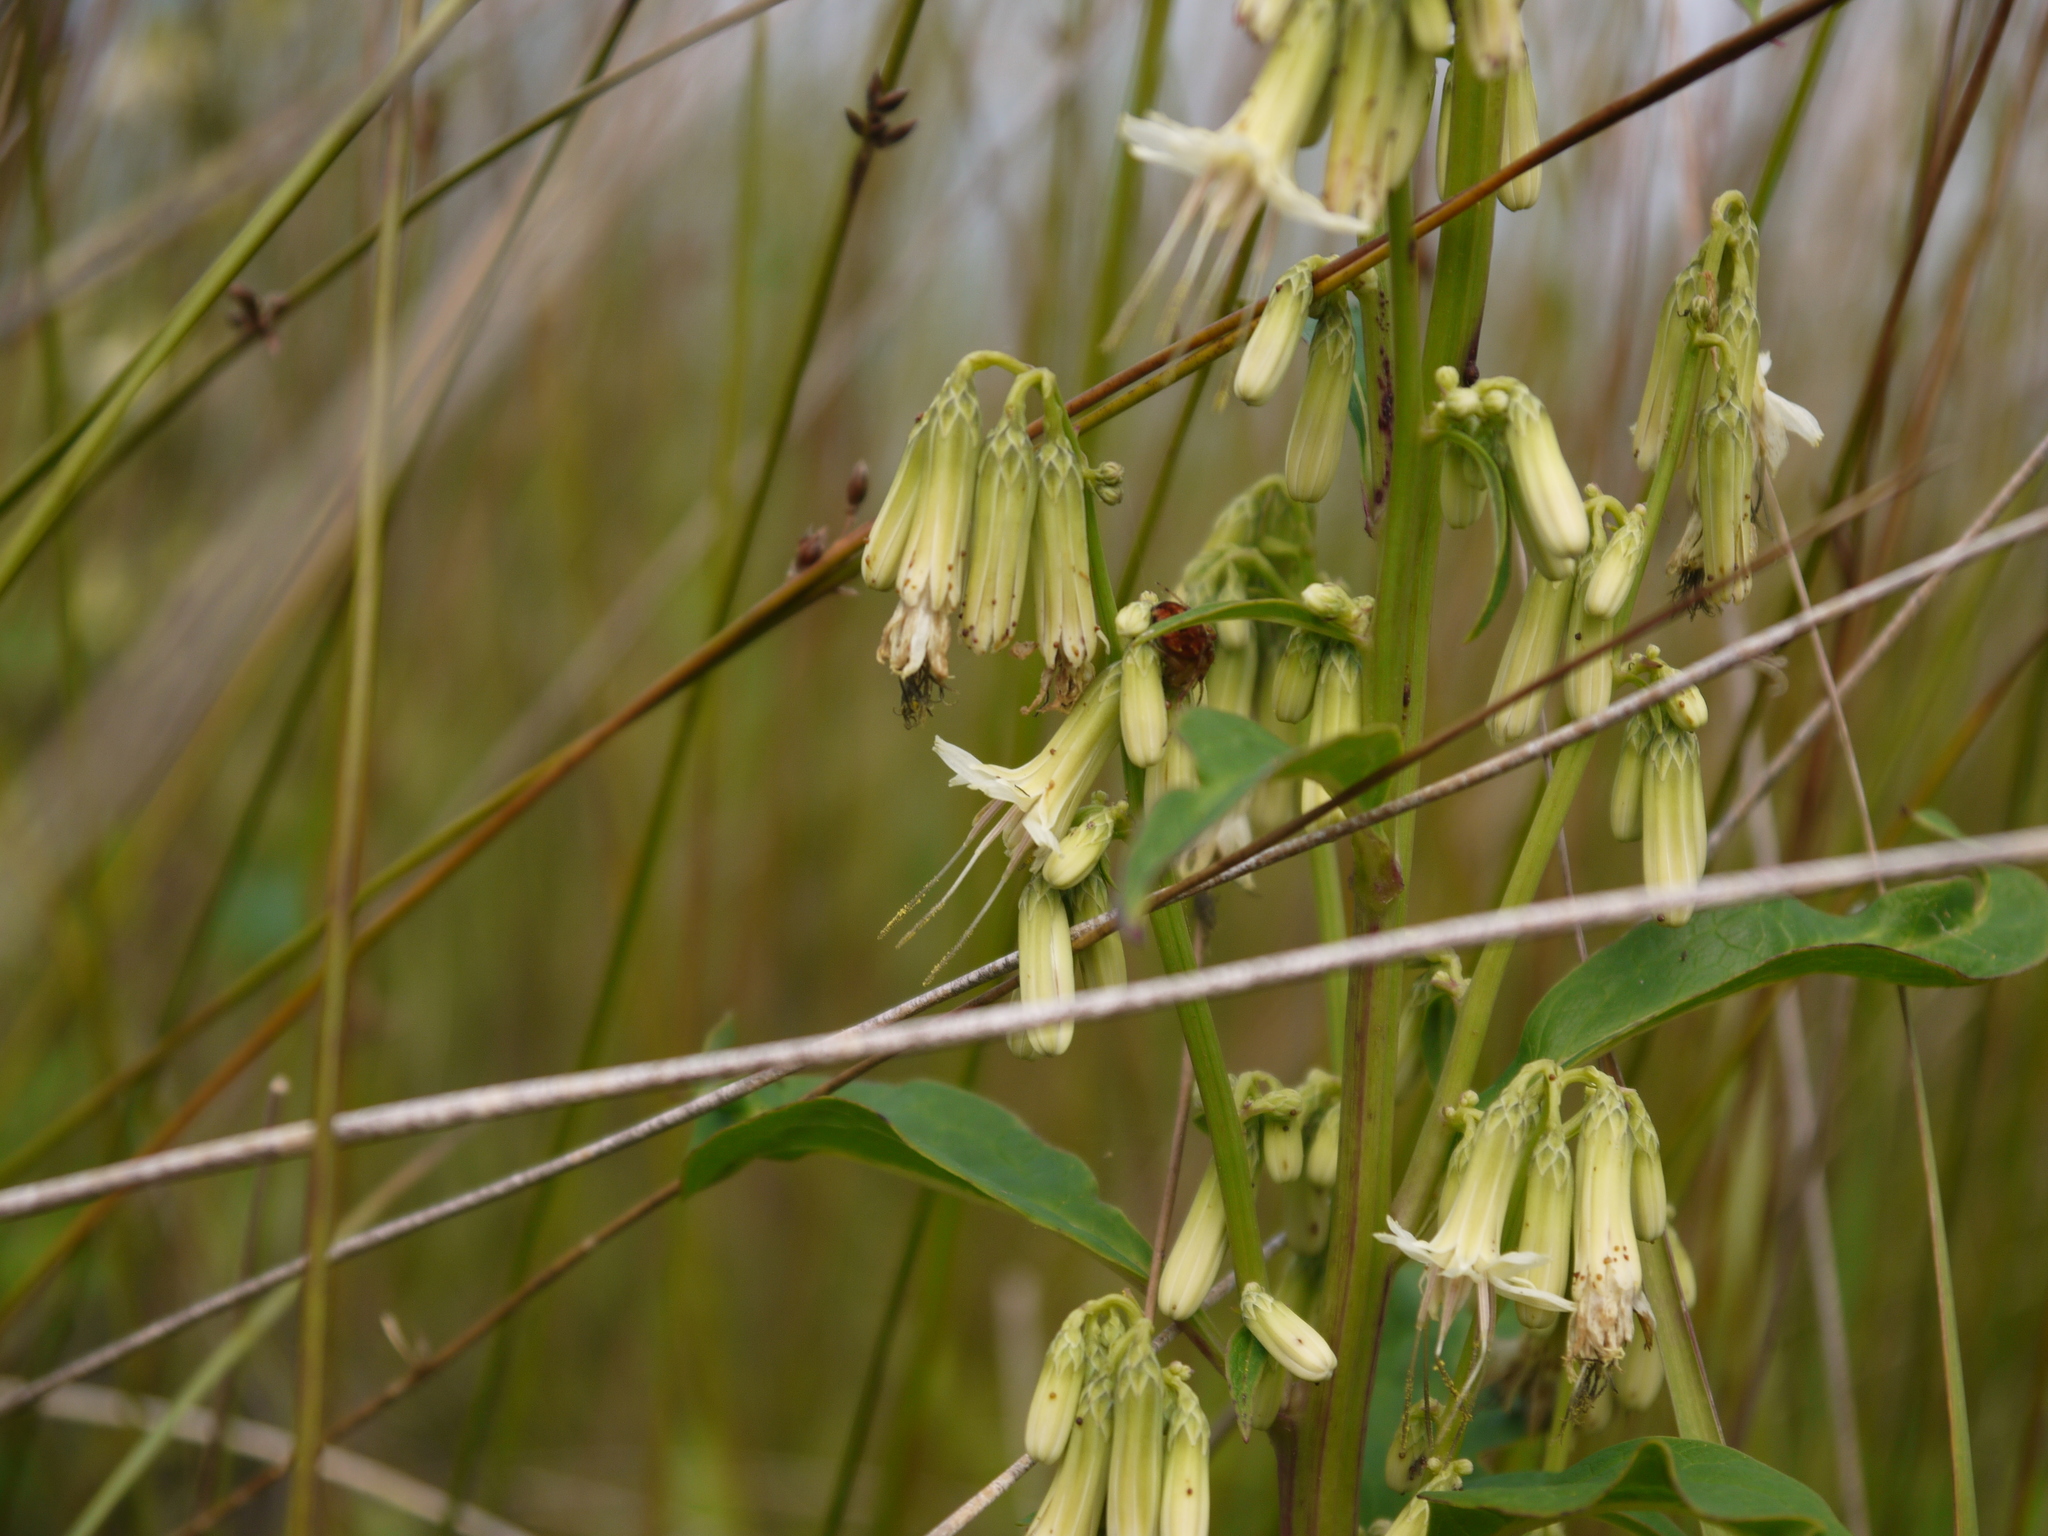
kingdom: Plantae
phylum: Tracheophyta
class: Magnoliopsida
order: Asterales
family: Asteraceae
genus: Nabalus
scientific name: Nabalus trifoliolatus
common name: Gall-of-the-earth
